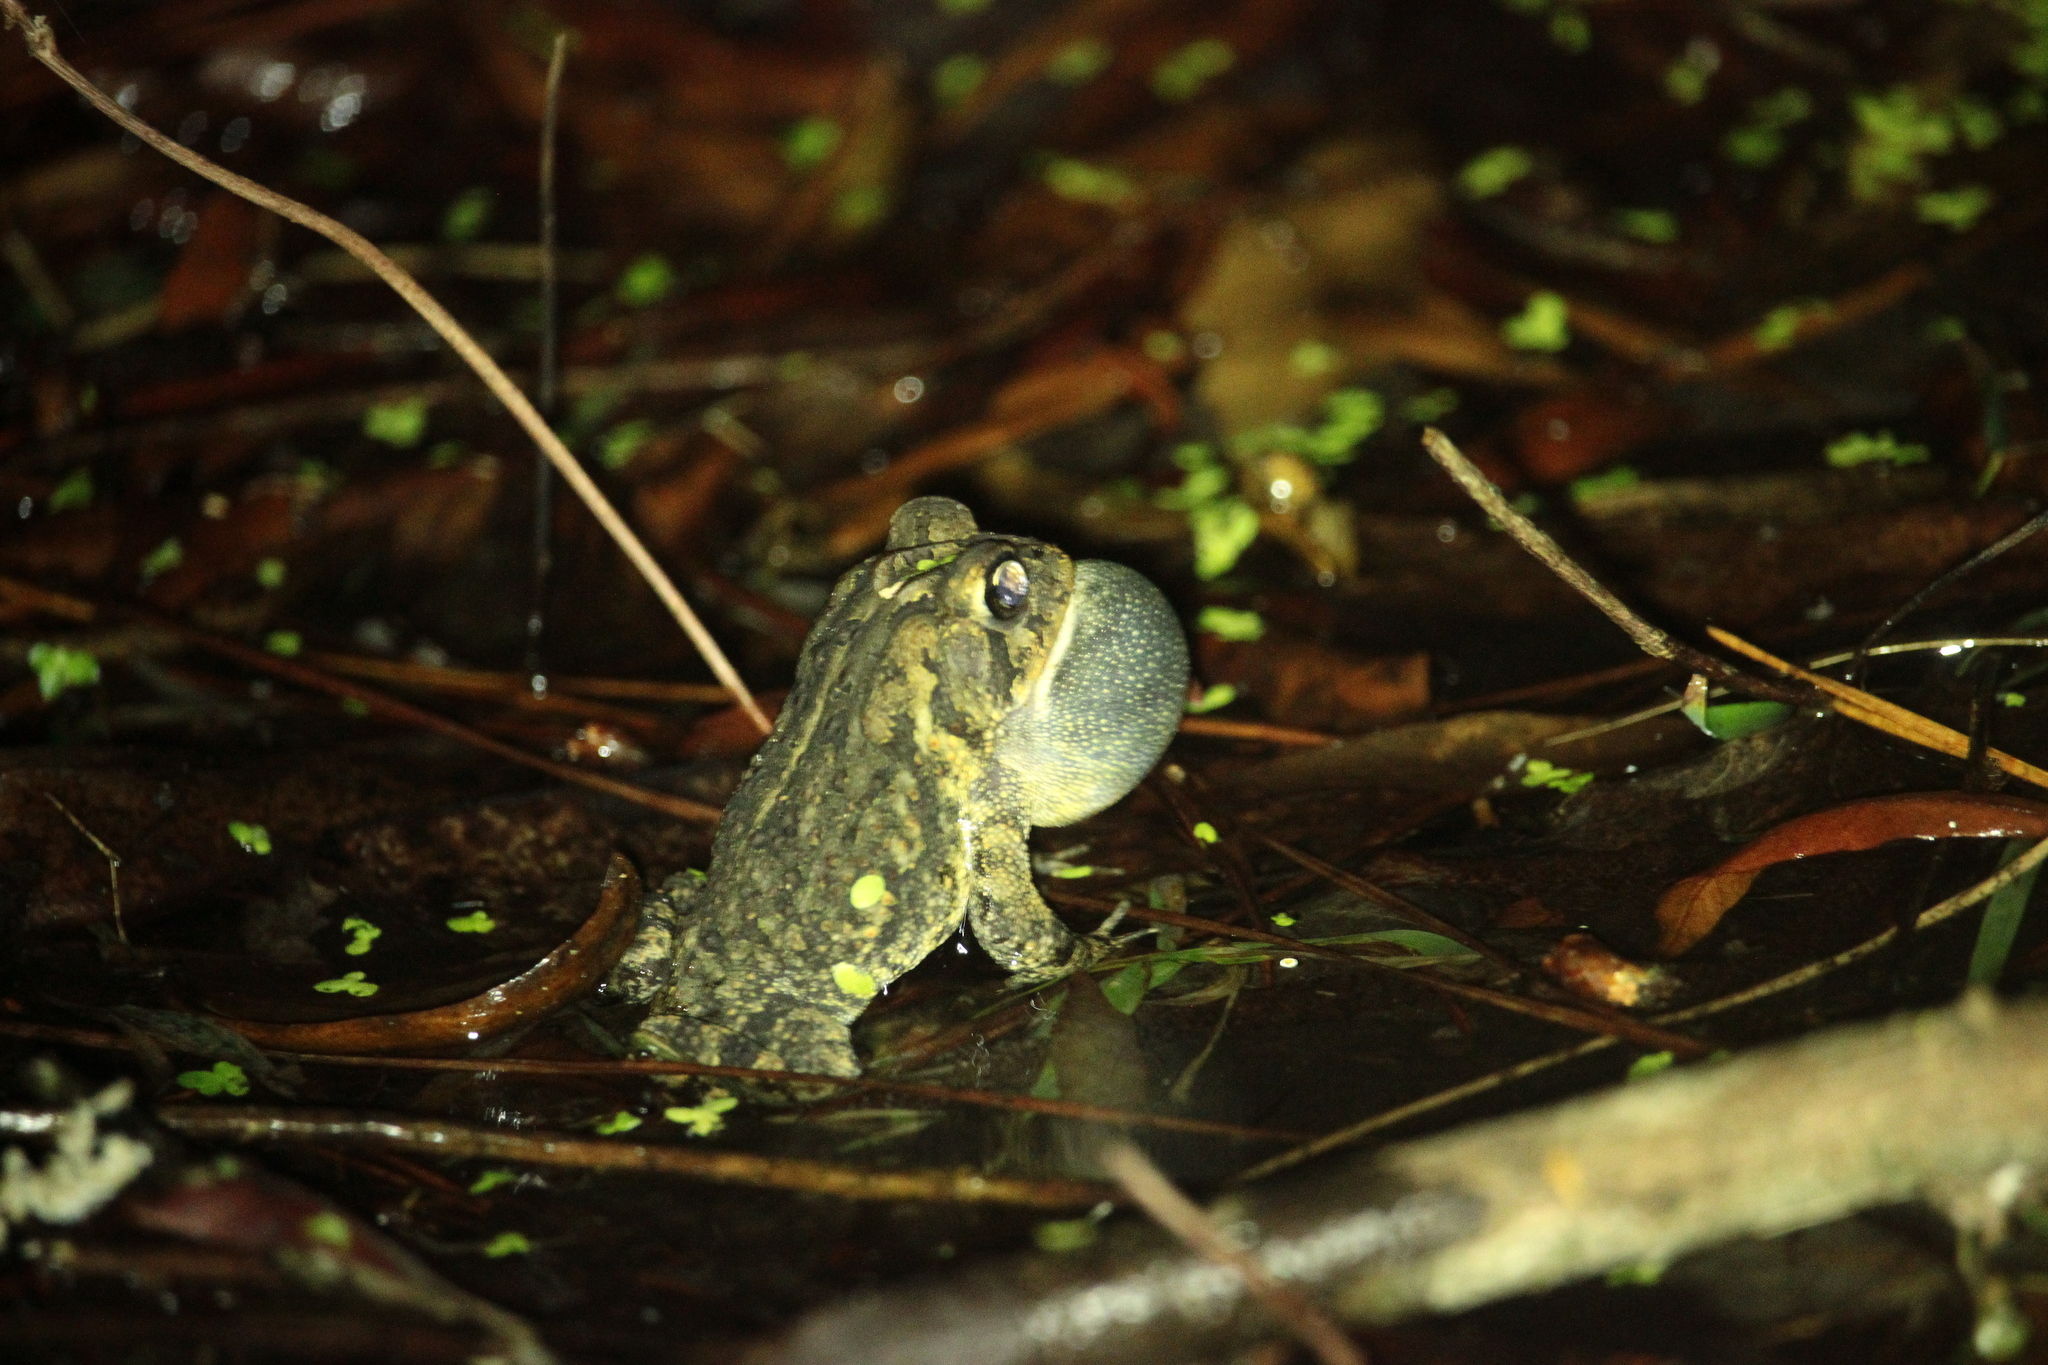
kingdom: Animalia
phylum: Chordata
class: Amphibia
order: Anura
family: Bufonidae
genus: Anaxyrus
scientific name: Anaxyrus terrestris
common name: Southern toad
